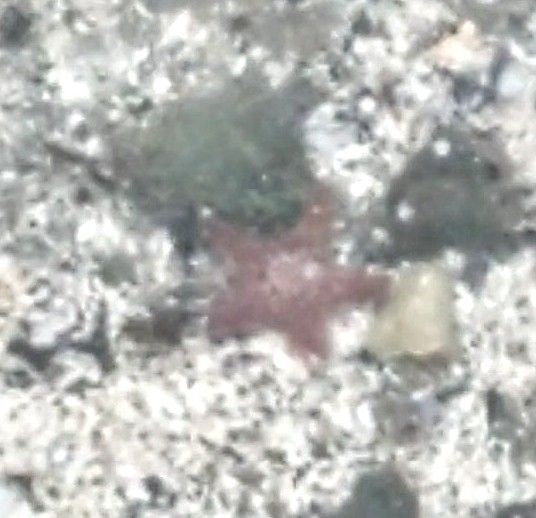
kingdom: Animalia
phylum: Echinodermata
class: Asteroidea
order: Valvatida
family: Asteropseidae
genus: Dermasterias
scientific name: Dermasterias imbricata
